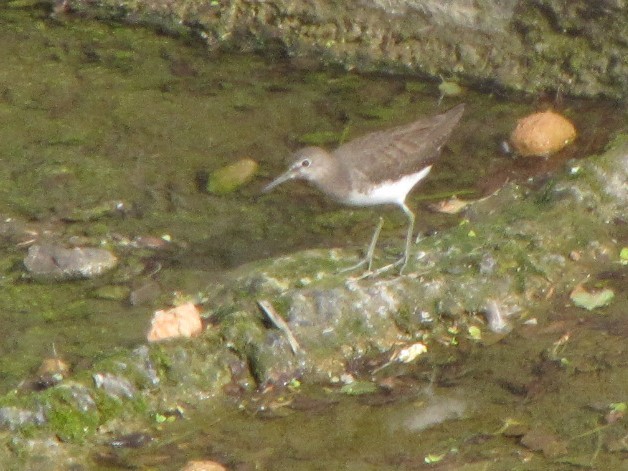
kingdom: Animalia
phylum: Chordata
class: Aves
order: Charadriiformes
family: Scolopacidae
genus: Actitis
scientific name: Actitis hypoleucos
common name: Common sandpiper
